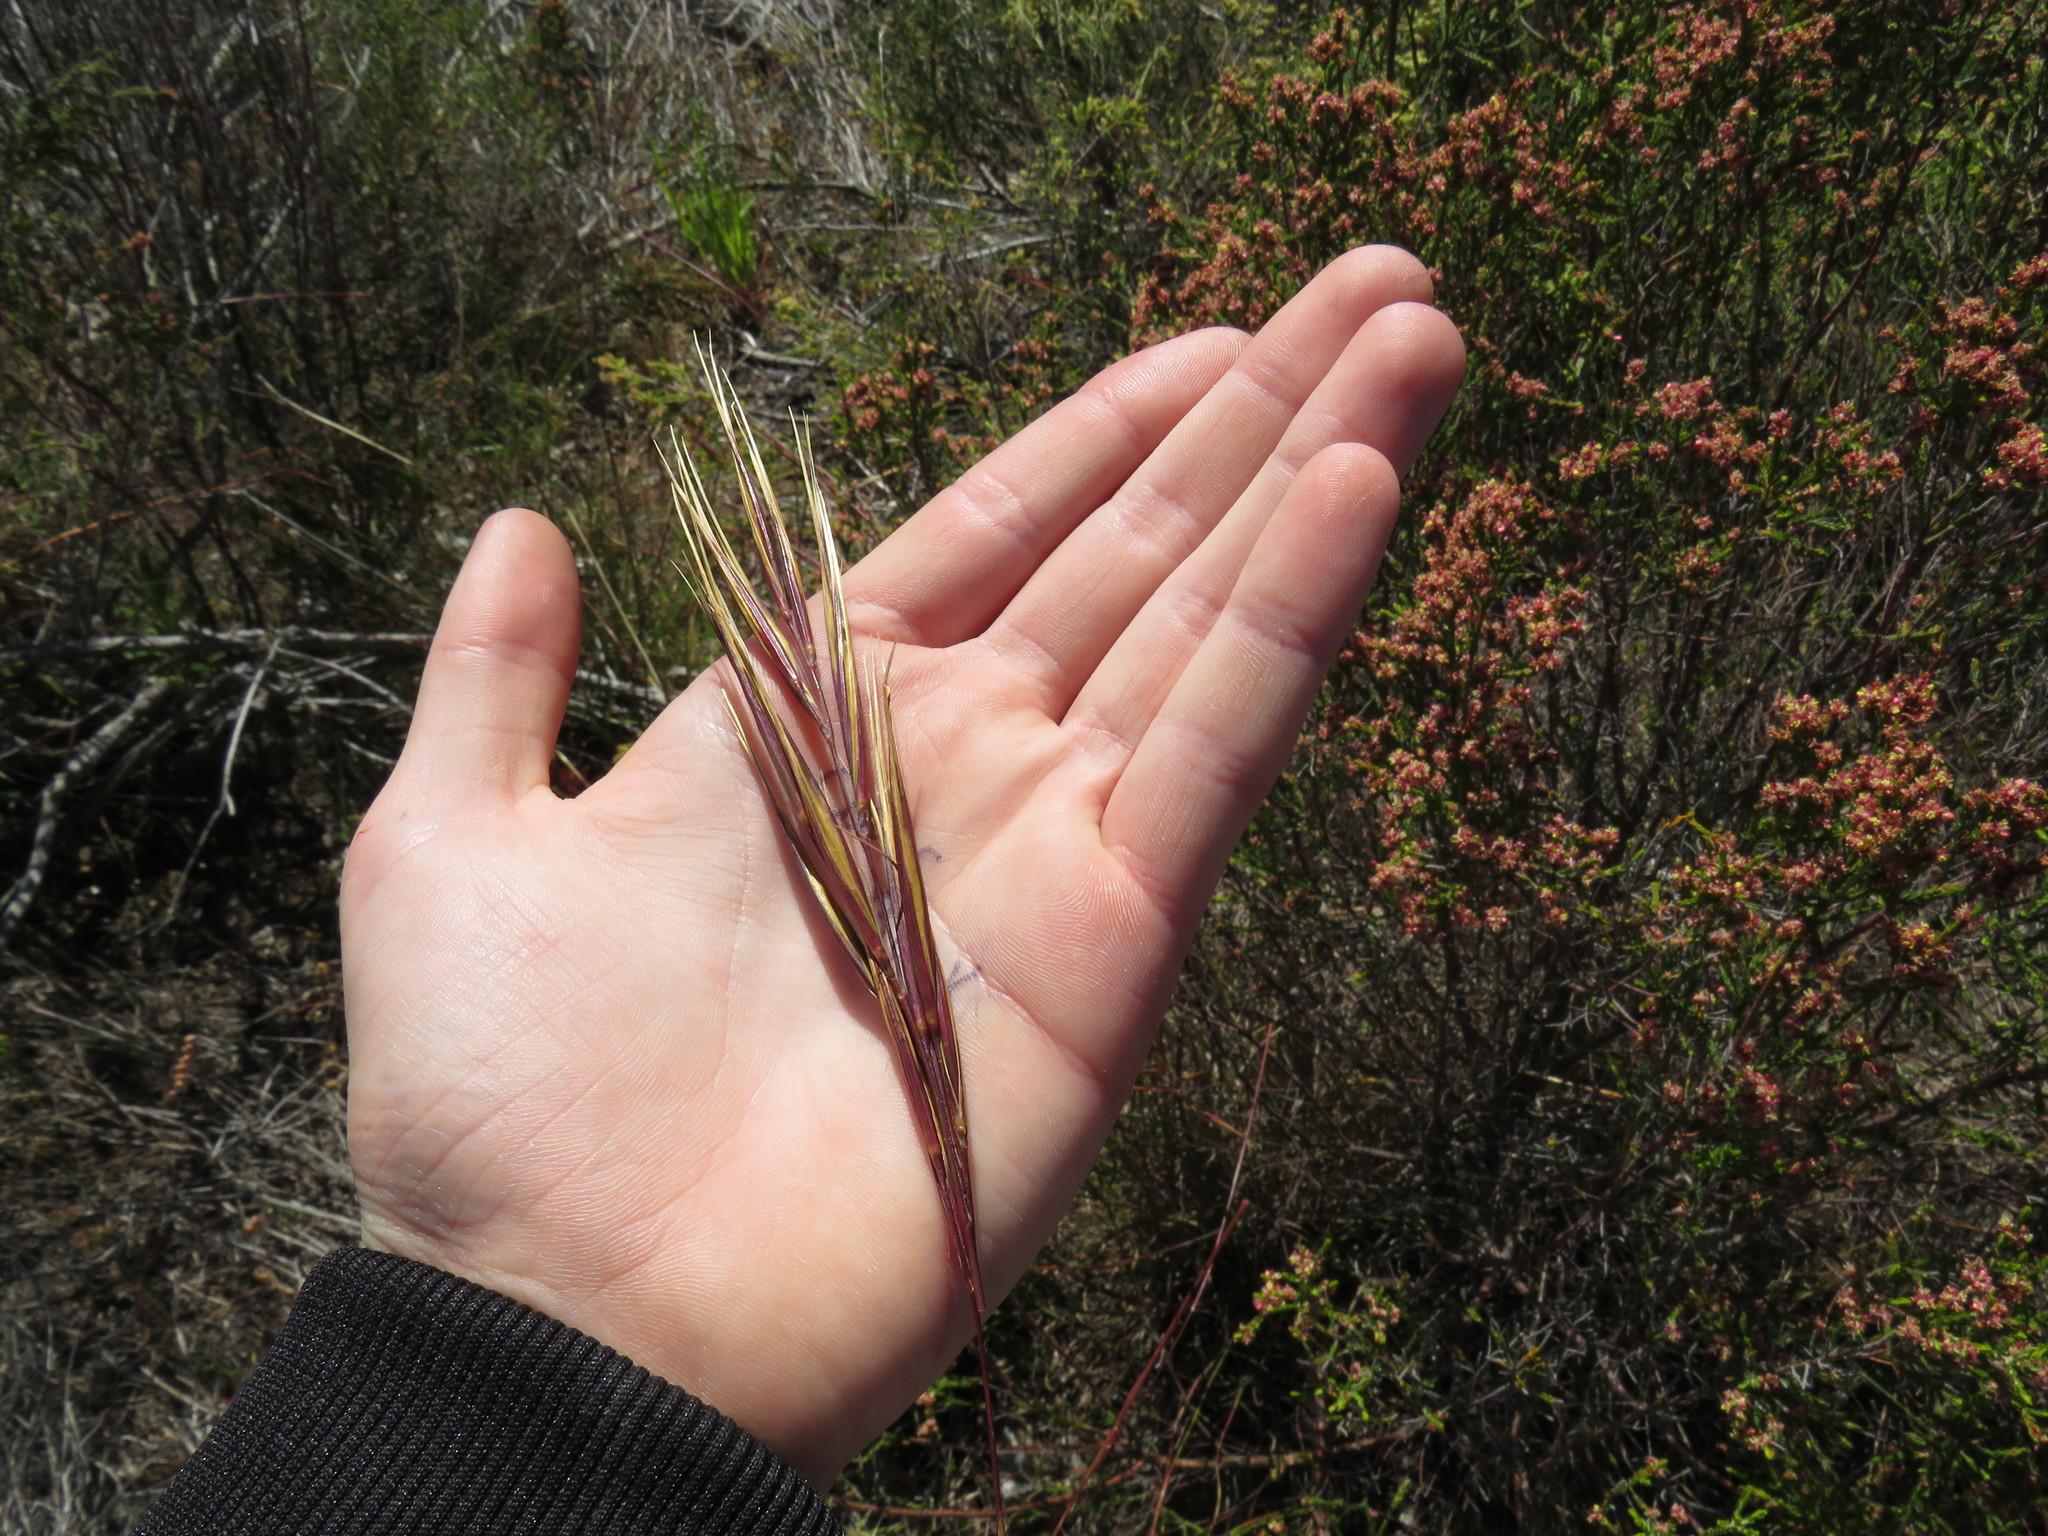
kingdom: Plantae
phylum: Tracheophyta
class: Liliopsida
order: Poales
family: Poaceae
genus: Pseudopentameris
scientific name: Pseudopentameris caespitosa
